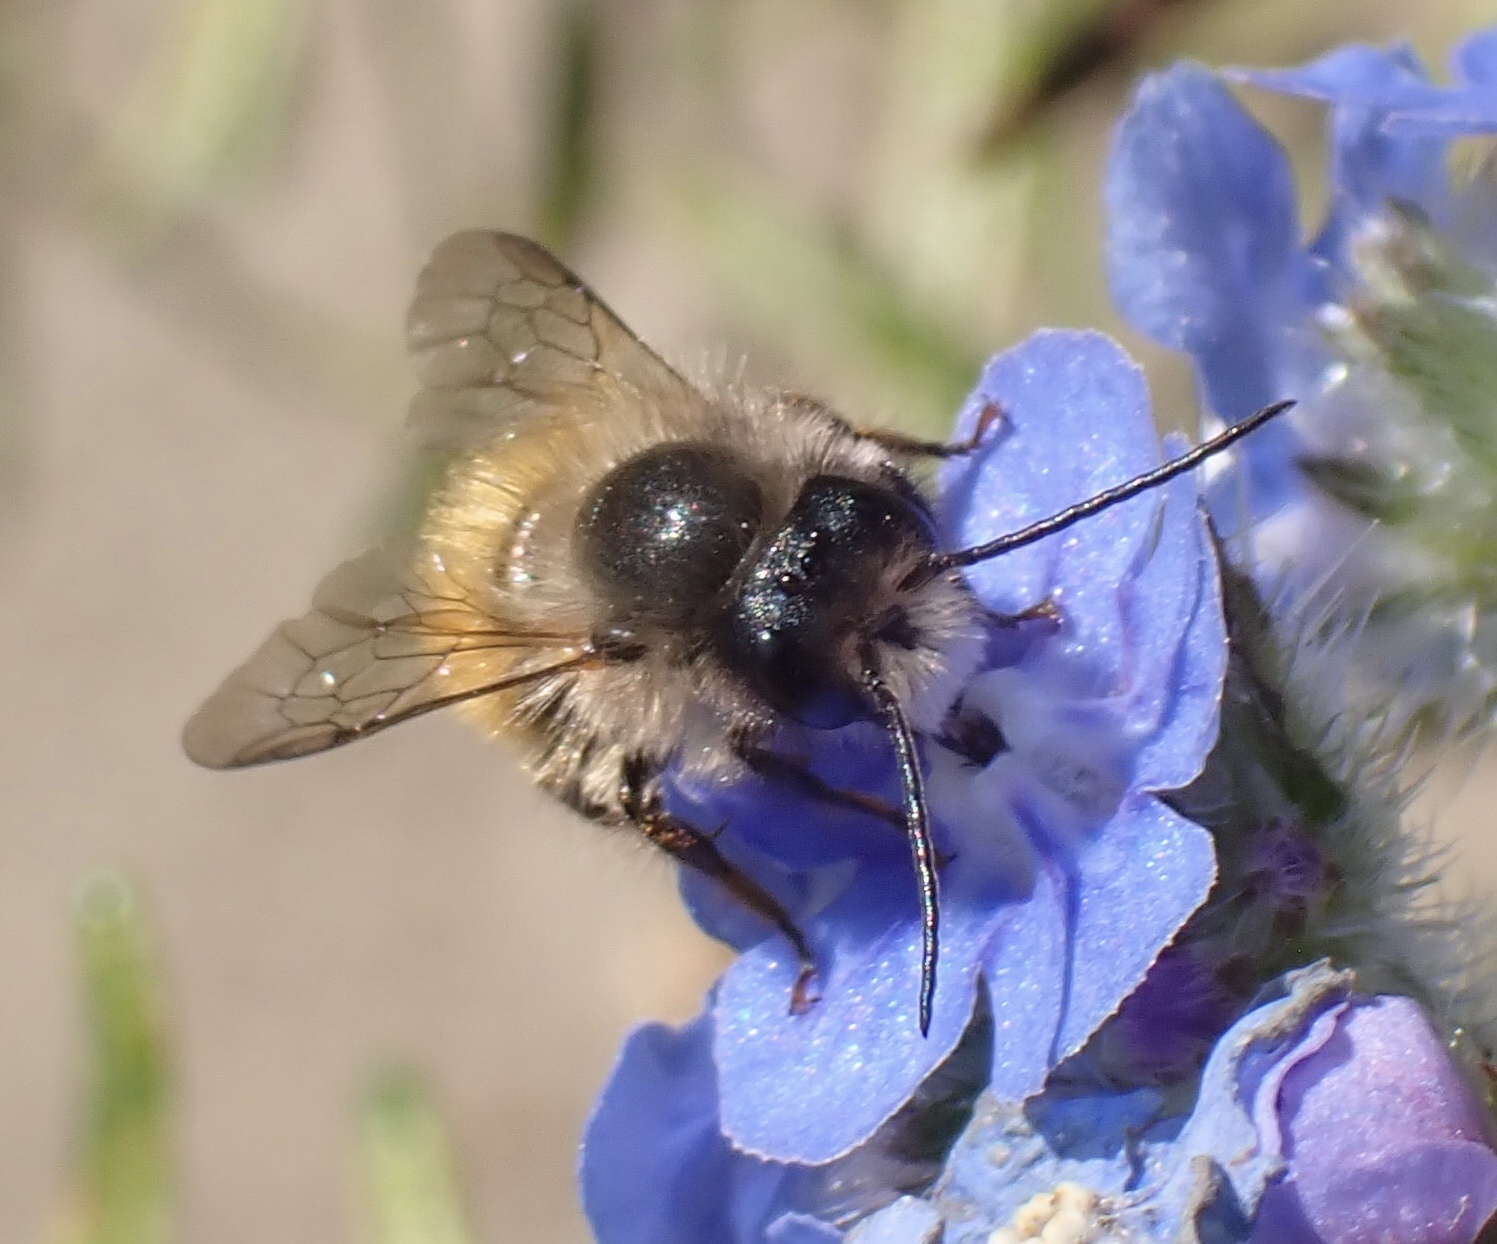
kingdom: Animalia
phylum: Arthropoda
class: Insecta
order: Hymenoptera
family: Megachilidae
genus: Osmia
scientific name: Osmia bicornis
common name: Red mason bee
